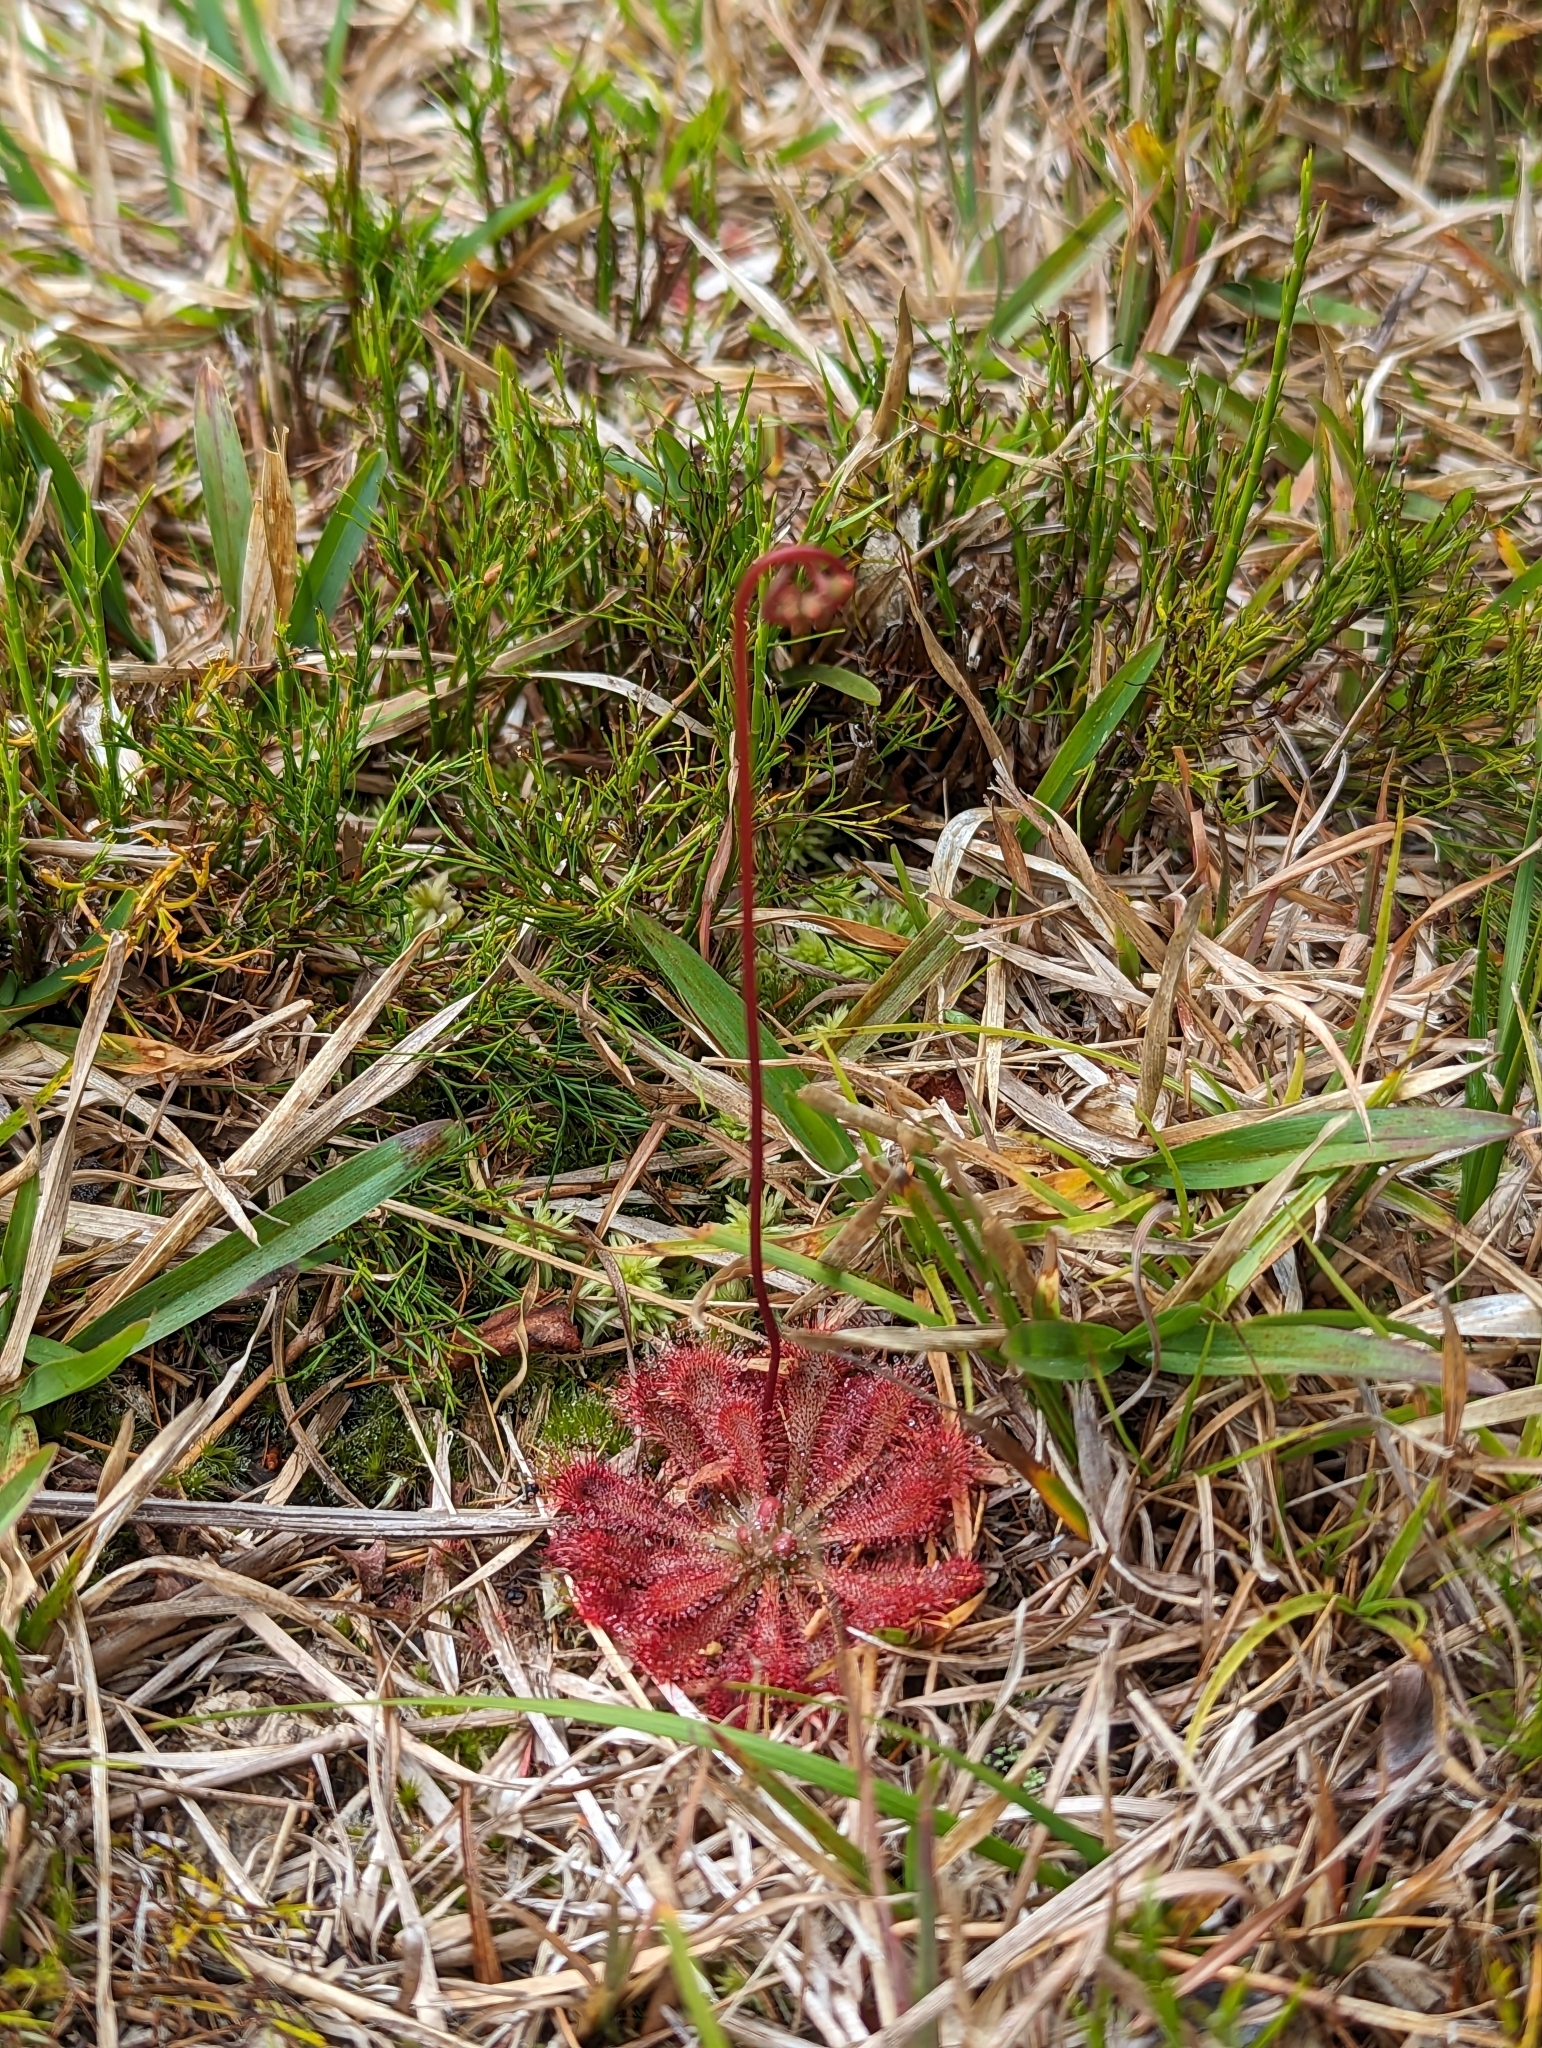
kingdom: Plantae
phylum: Tracheophyta
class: Magnoliopsida
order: Caryophyllales
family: Droseraceae
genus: Drosera
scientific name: Drosera spatulata
